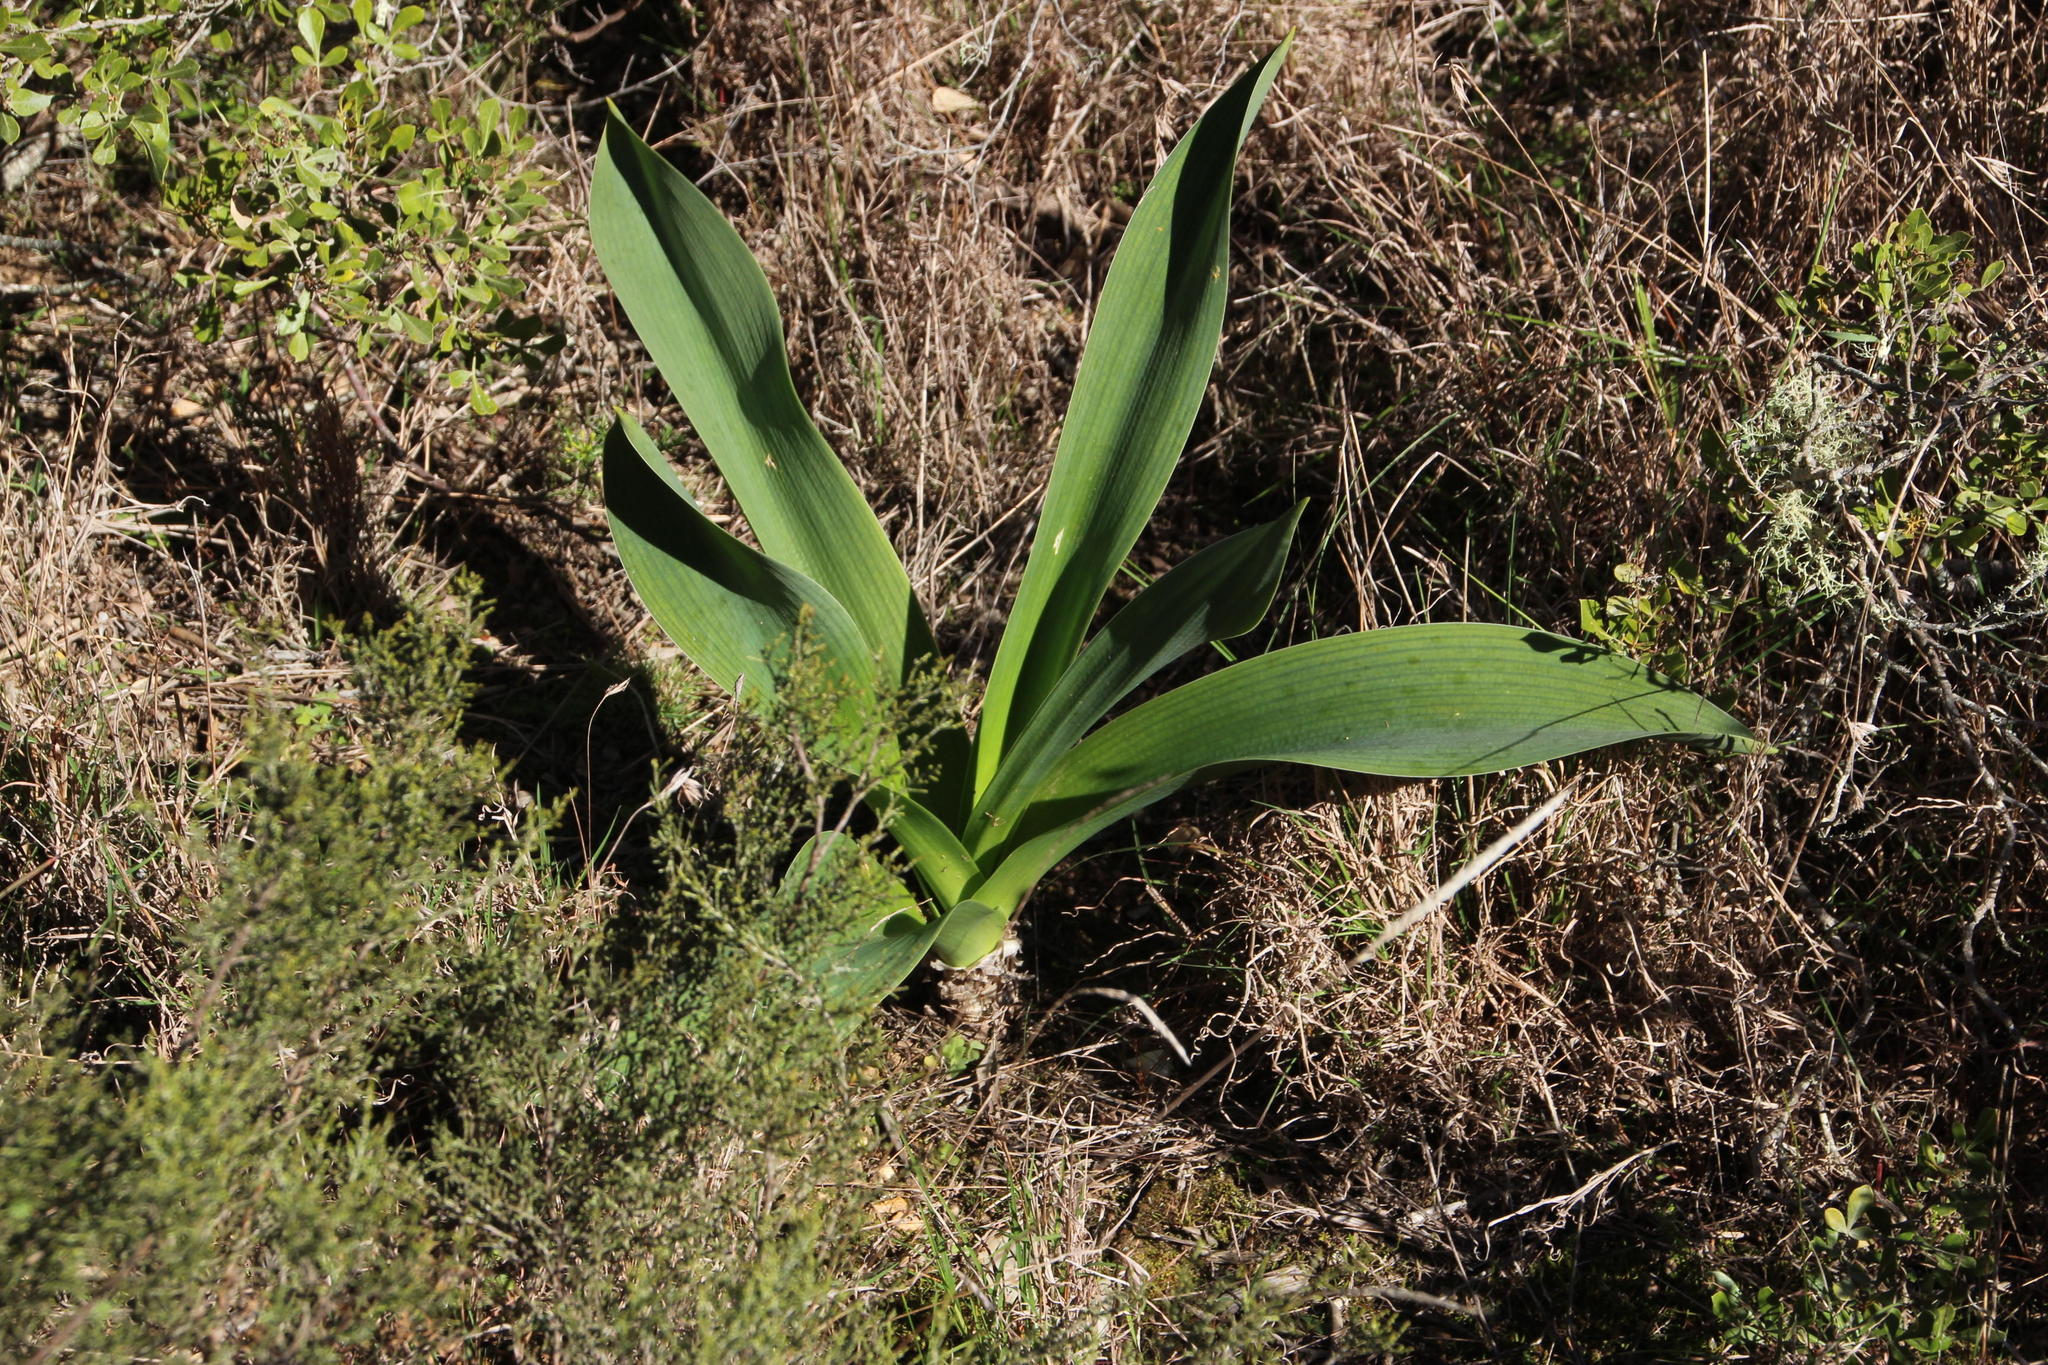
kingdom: Plantae
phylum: Tracheophyta
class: Liliopsida
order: Asparagales
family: Asparagaceae
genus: Drimia
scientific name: Drimia capensis
